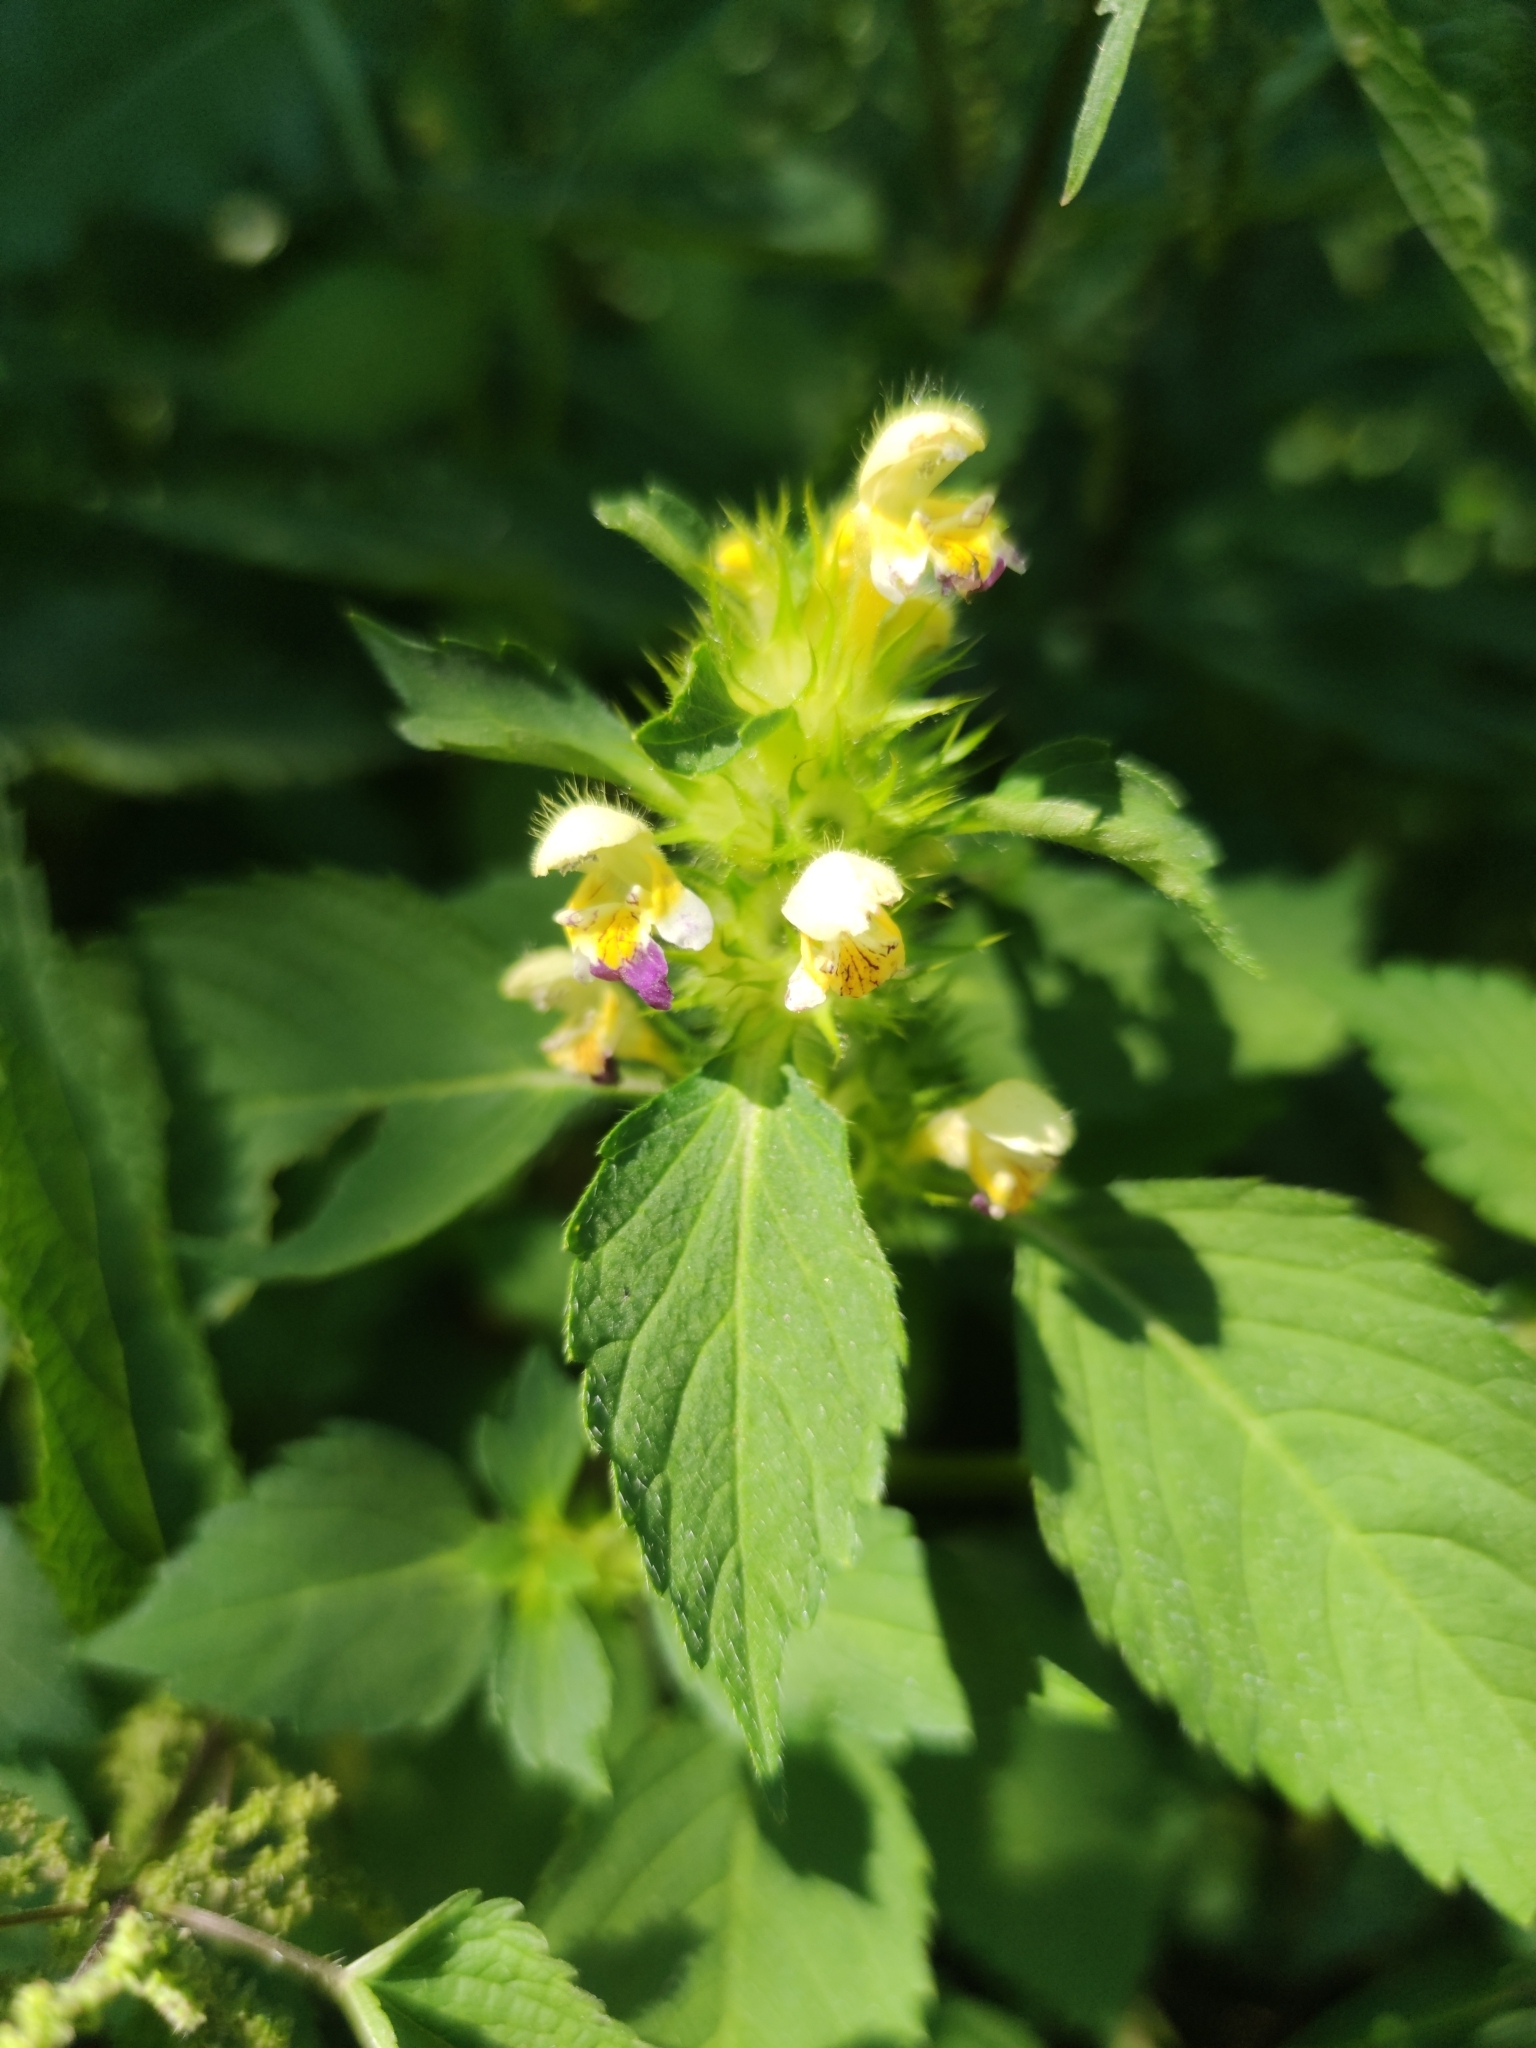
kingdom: Plantae
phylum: Tracheophyta
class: Magnoliopsida
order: Lamiales
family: Lamiaceae
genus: Galeopsis
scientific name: Galeopsis speciosa
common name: Large-flowered hemp-nettle
